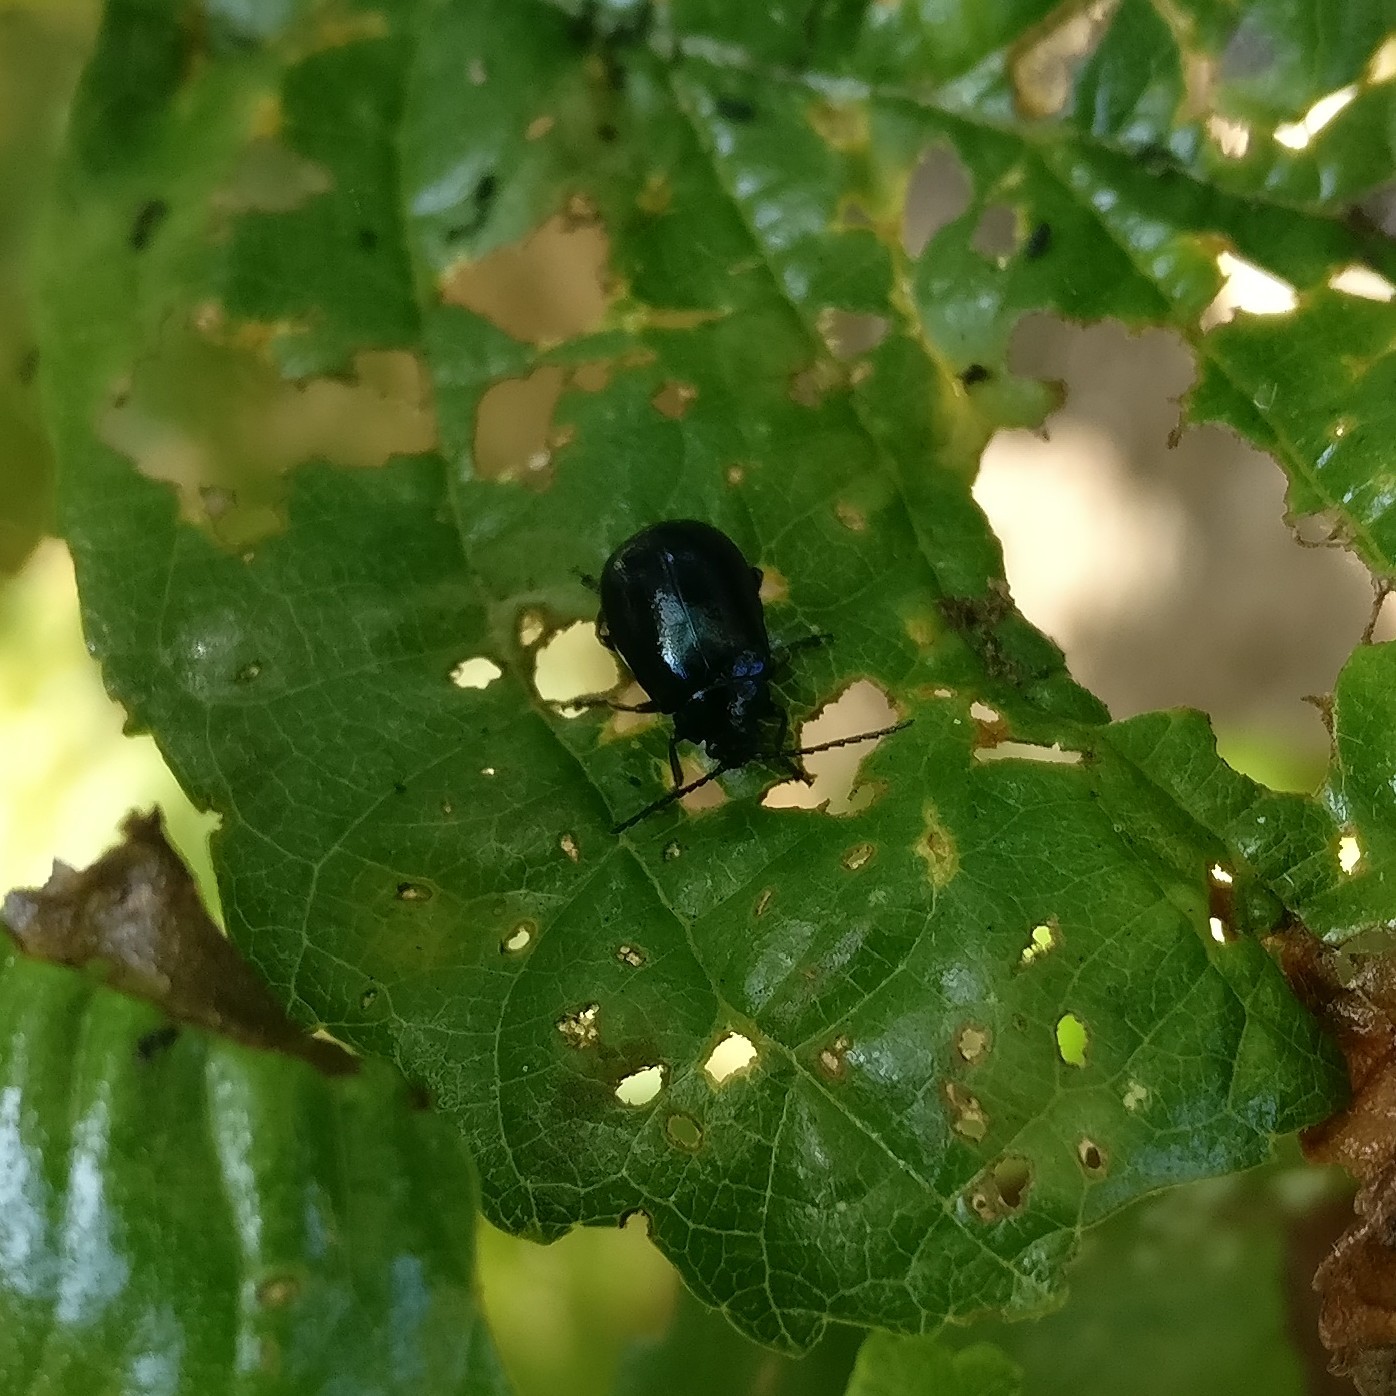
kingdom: Animalia
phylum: Arthropoda
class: Insecta
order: Coleoptera
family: Chrysomelidae
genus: Agelastica
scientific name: Agelastica alni
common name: Alder leaf beetle
